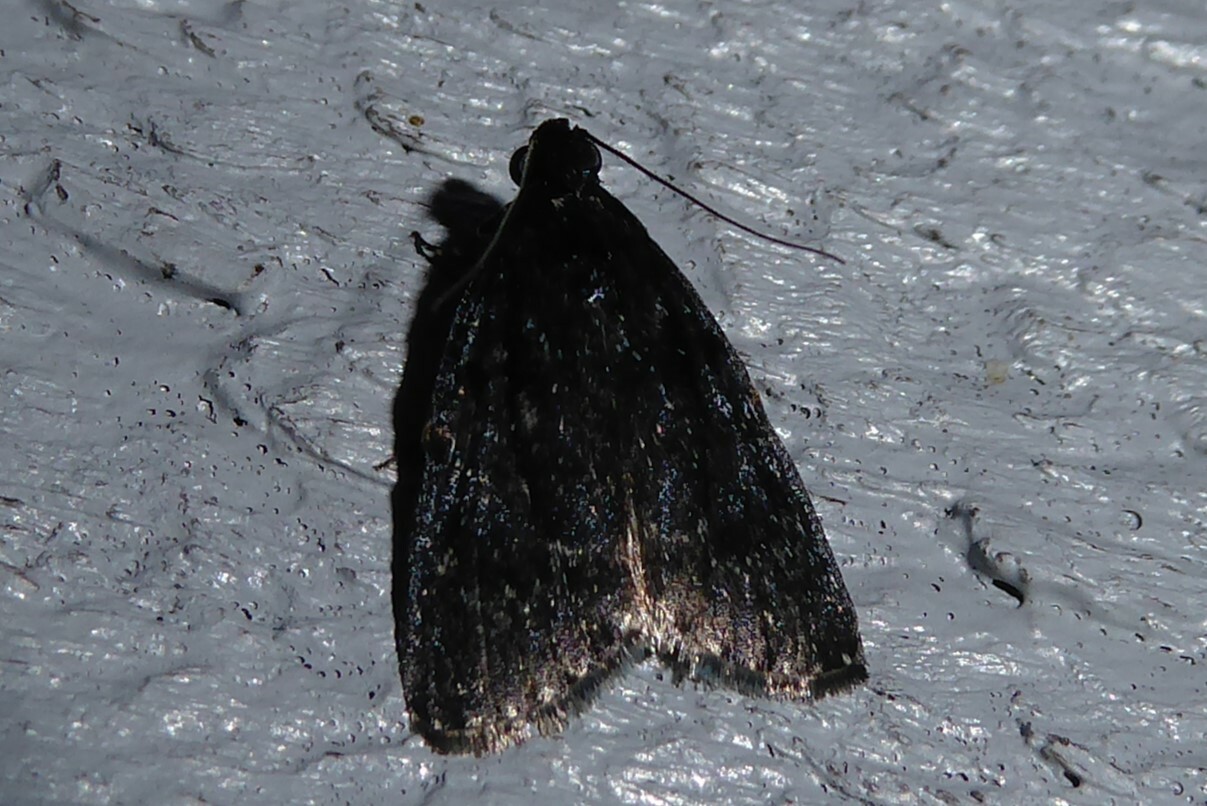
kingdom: Animalia
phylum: Arthropoda
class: Insecta
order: Lepidoptera
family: Pyralidae
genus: Stericta
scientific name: Stericta carbonalis
